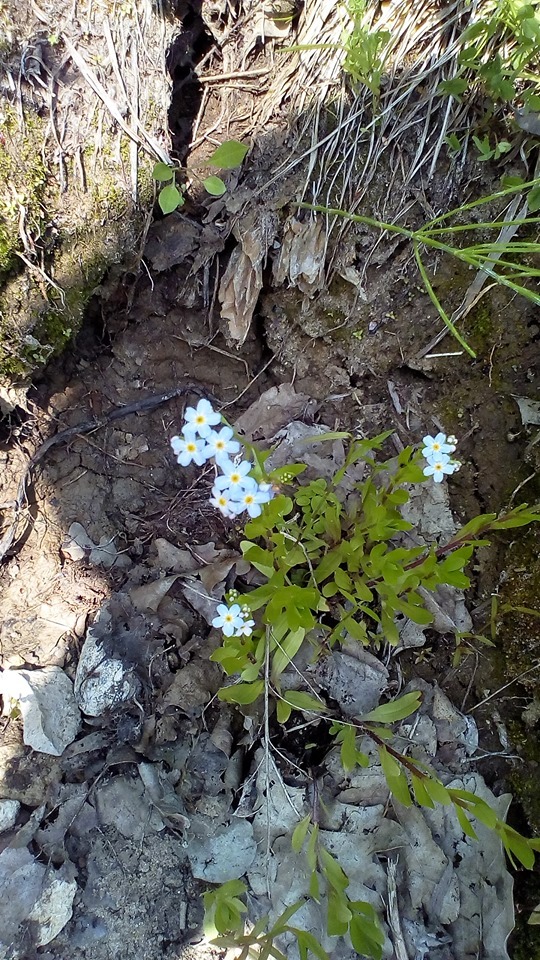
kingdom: Plantae
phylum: Tracheophyta
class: Magnoliopsida
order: Boraginales
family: Boraginaceae
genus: Myosotis
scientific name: Myosotis scorpioides
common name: Water forget-me-not
